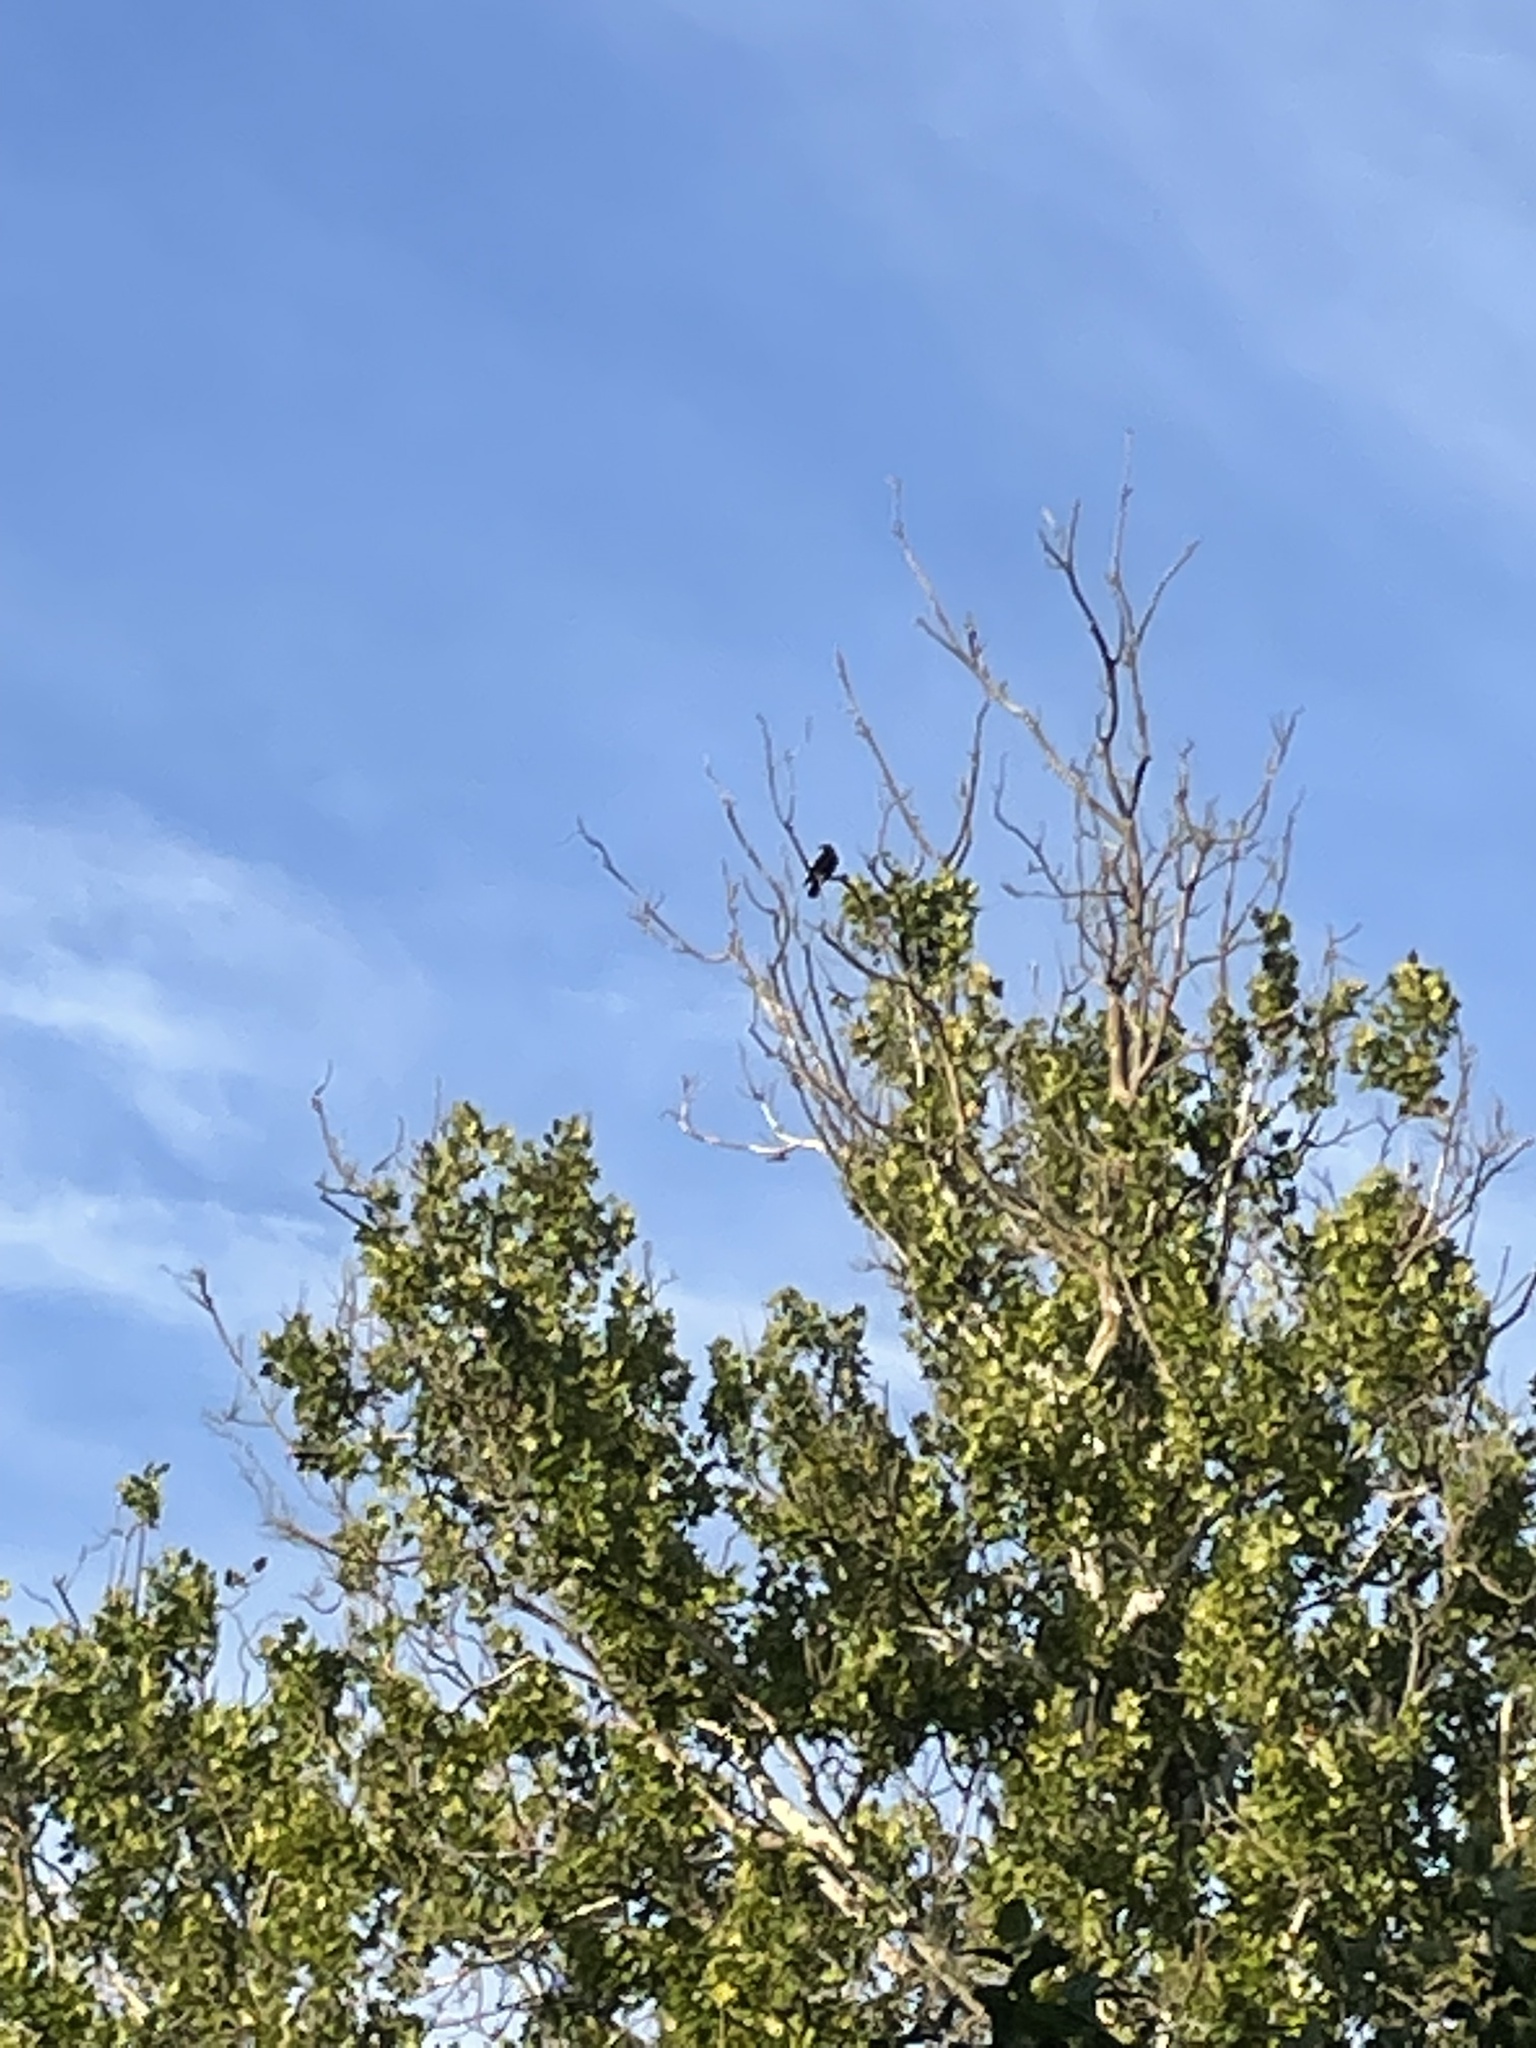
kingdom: Animalia
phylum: Chordata
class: Aves
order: Passeriformes
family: Corvidae
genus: Corvus
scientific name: Corvus brachyrhynchos
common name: American crow
